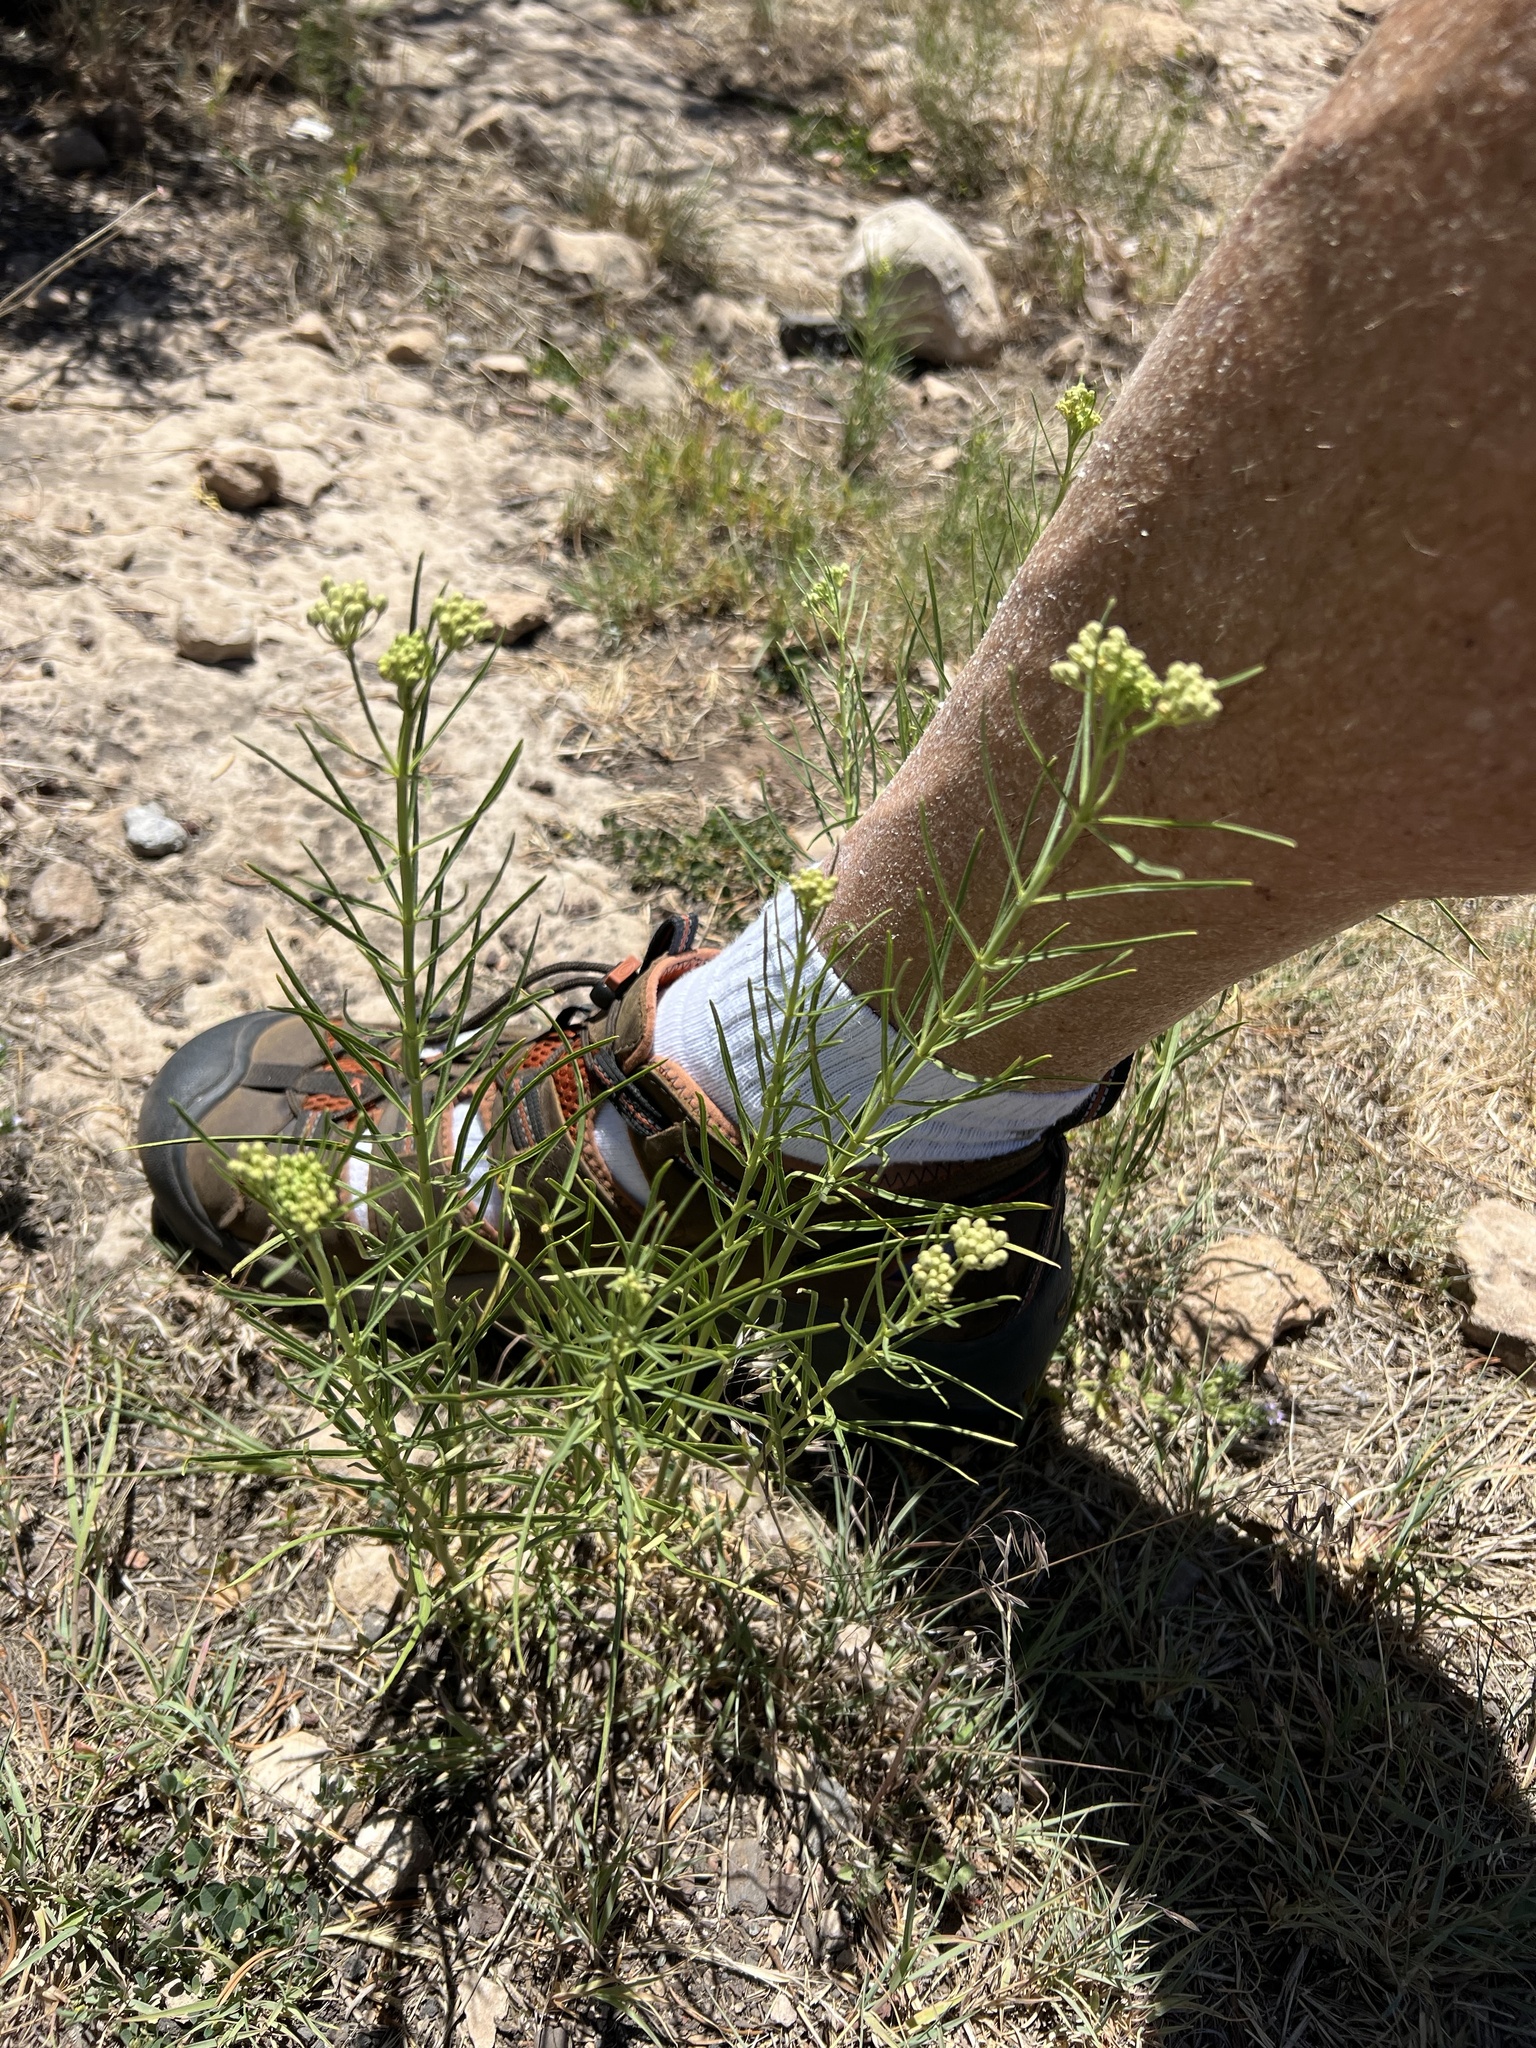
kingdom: Plantae
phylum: Tracheophyta
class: Magnoliopsida
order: Gentianales
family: Apocynaceae
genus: Asclepias
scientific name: Asclepias subverticillata
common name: Horsetail milkweed
